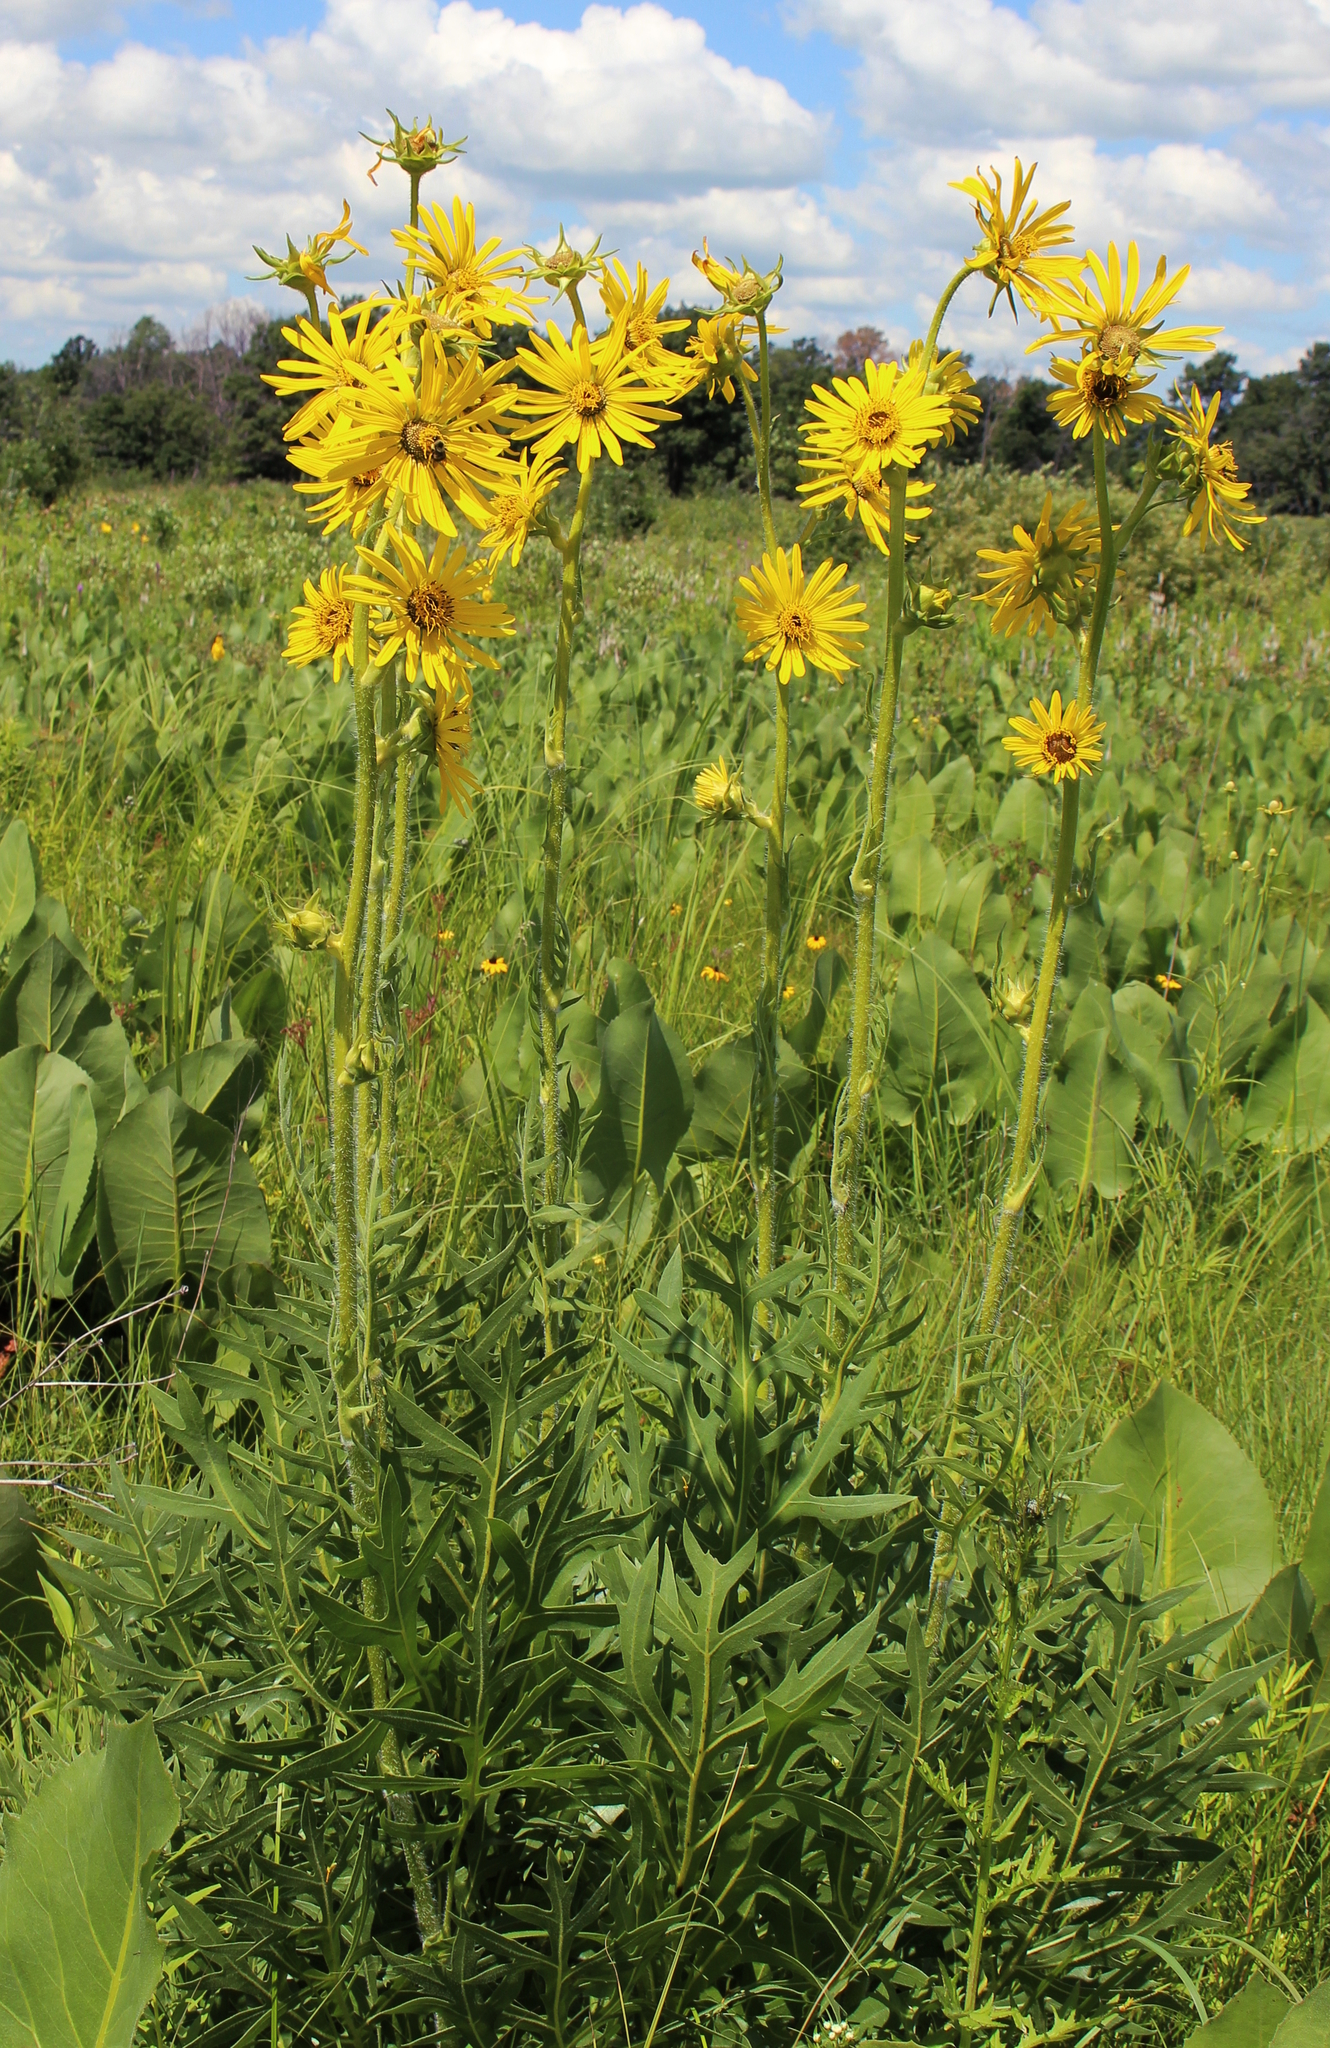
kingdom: Plantae
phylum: Tracheophyta
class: Magnoliopsida
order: Asterales
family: Asteraceae
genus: Silphium
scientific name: Silphium laciniatum
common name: Polarplant
